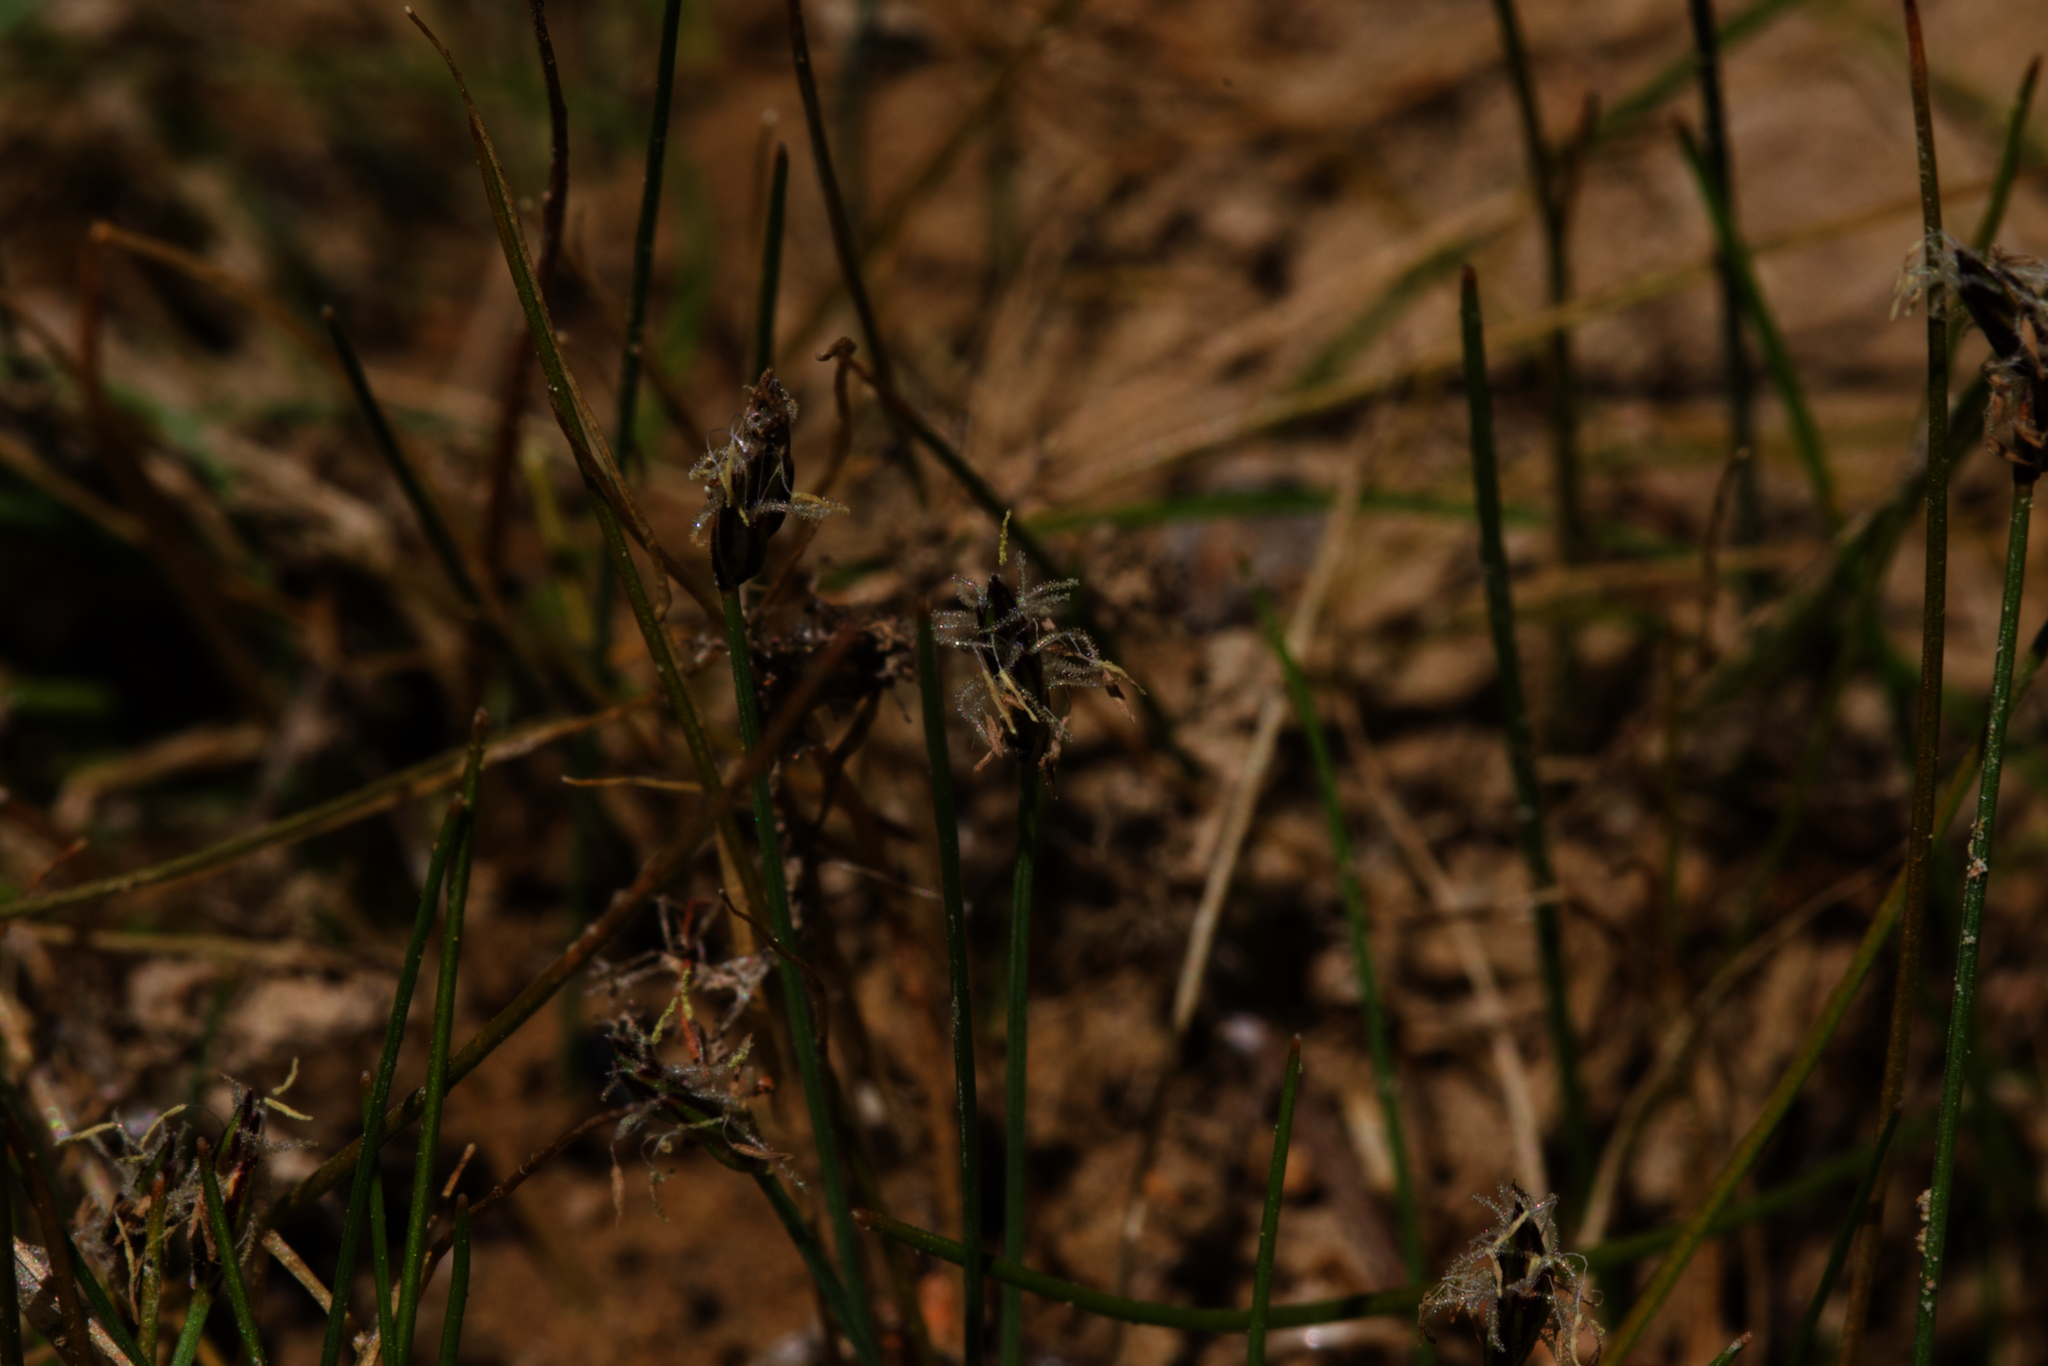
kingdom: Plantae
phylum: Tracheophyta
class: Liliopsida
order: Poales
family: Cyperaceae
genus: Eleocharis
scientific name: Eleocharis acicularis
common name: Needle spike-rush
